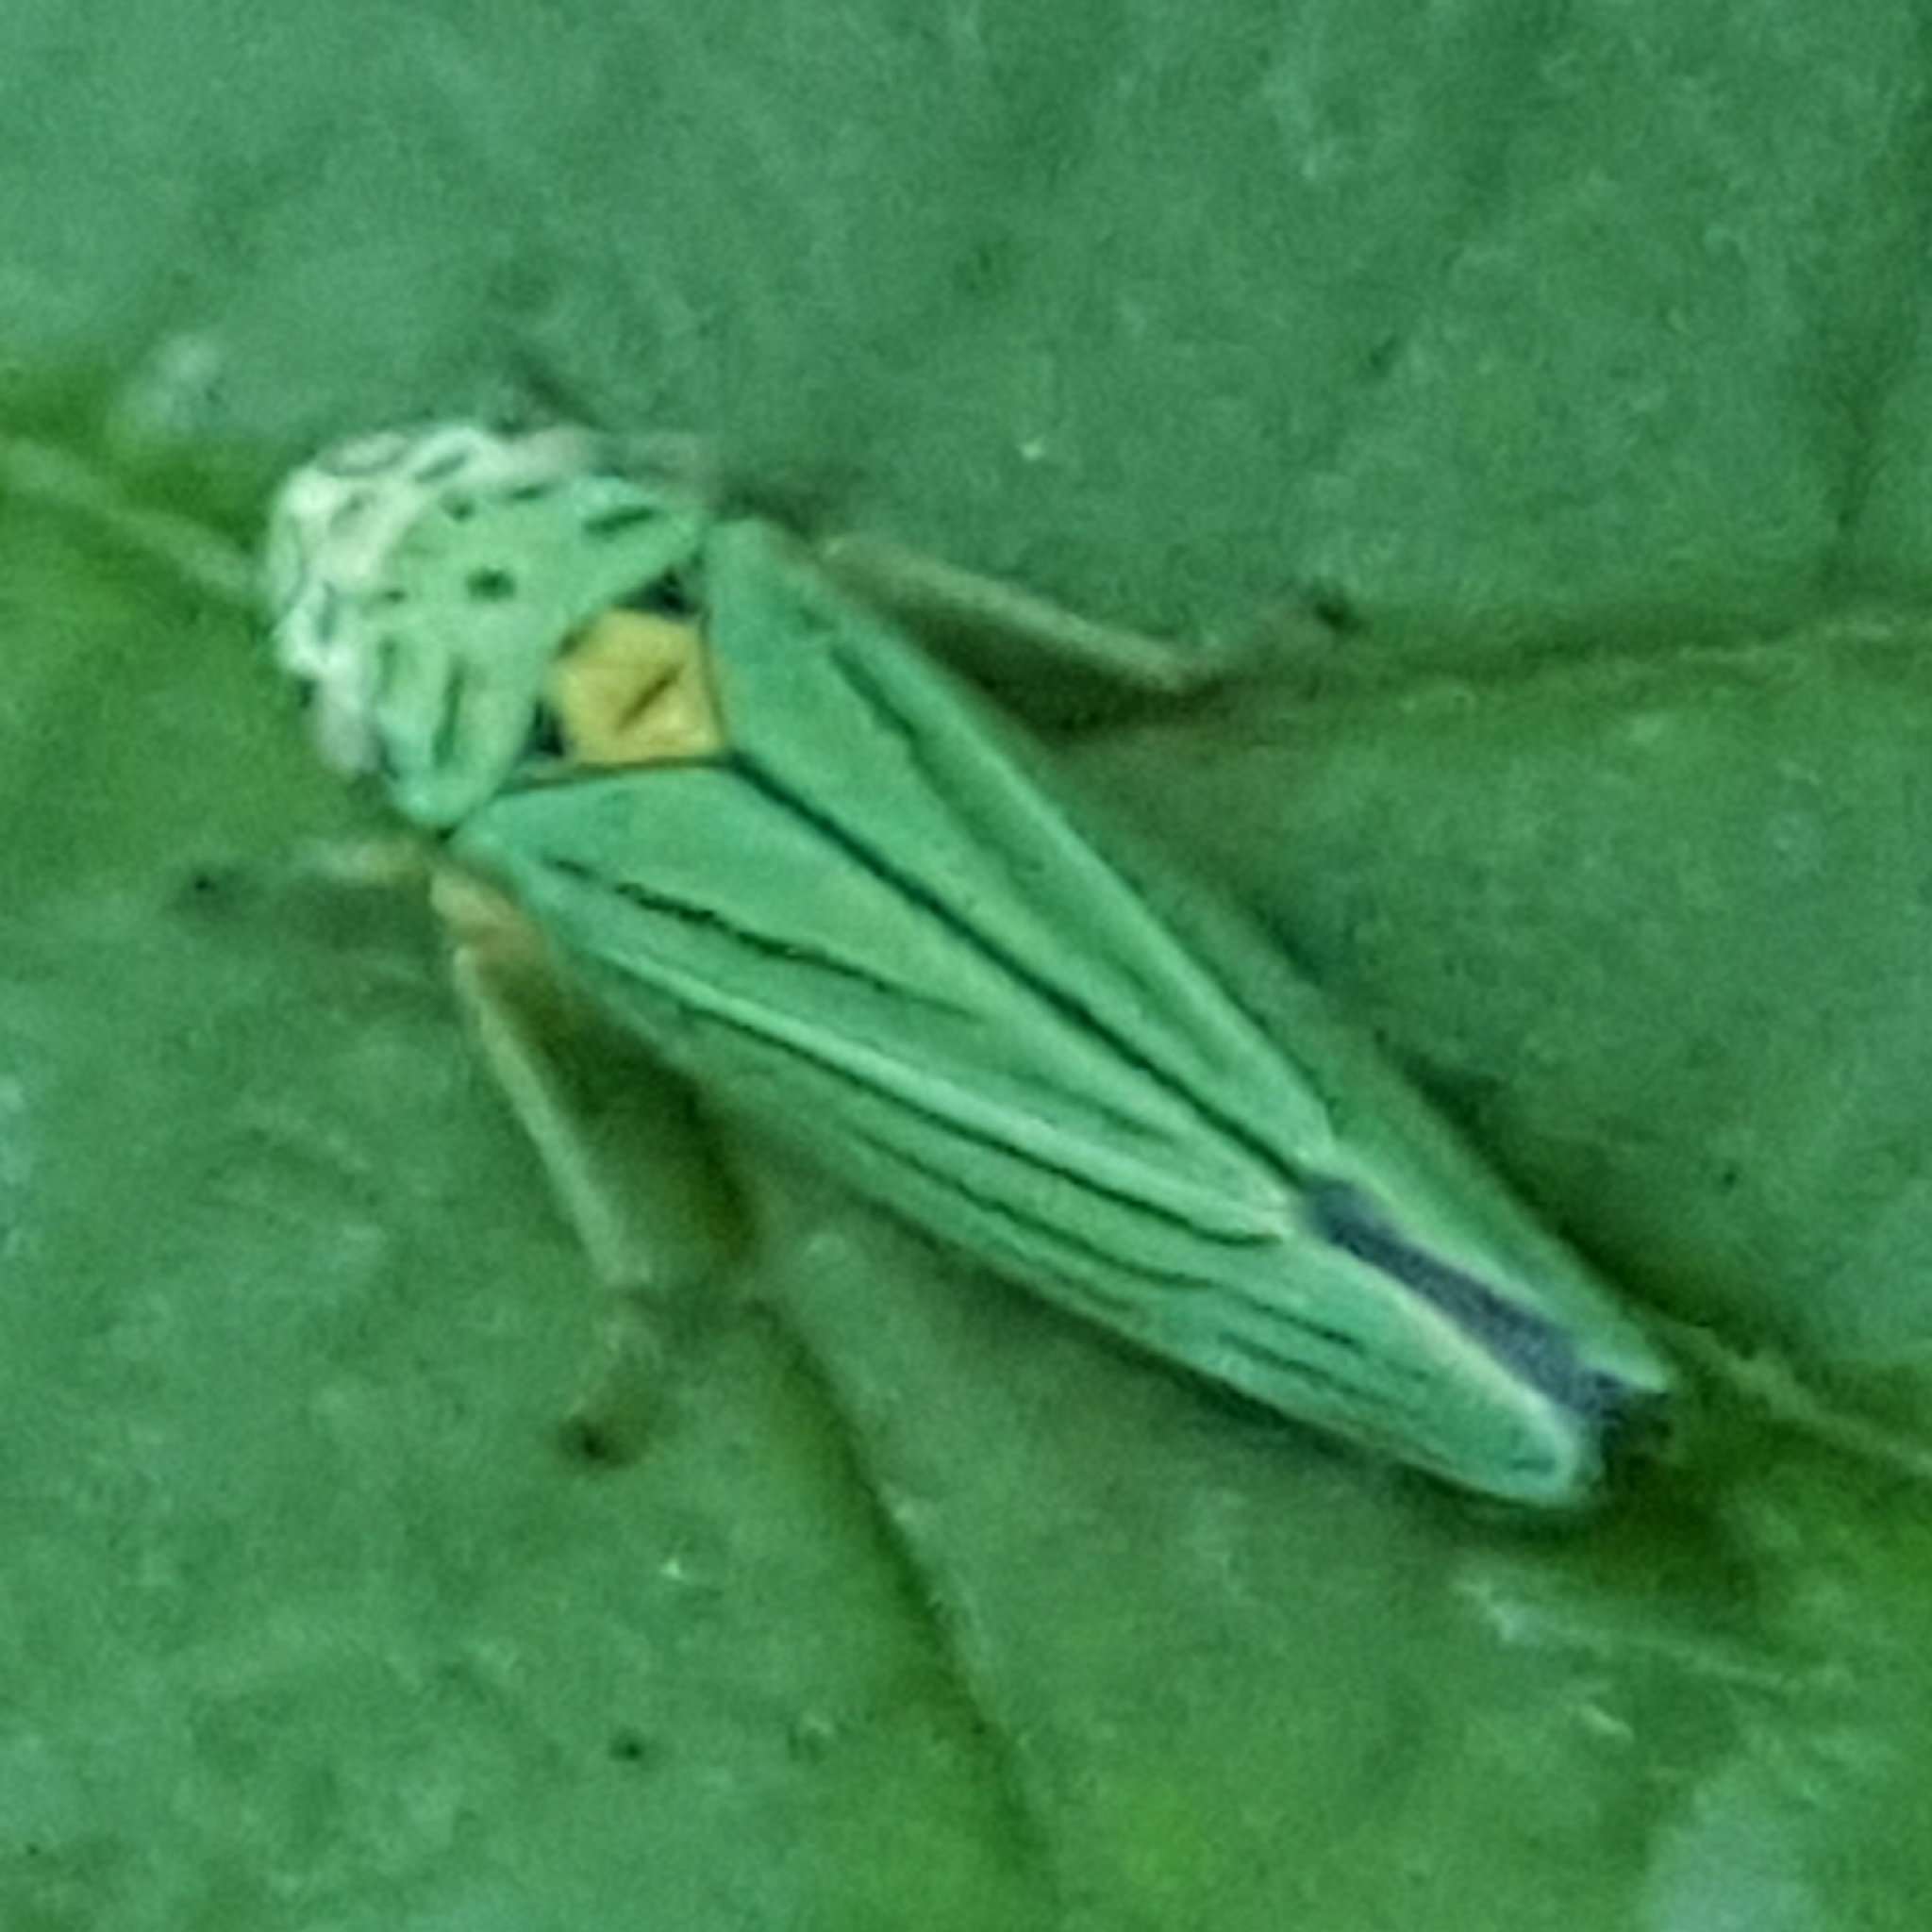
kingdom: Animalia
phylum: Arthropoda
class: Insecta
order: Hemiptera
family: Cicadellidae
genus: Graphocephala
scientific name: Graphocephala atropunctata
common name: Blue-green sharpshooter
